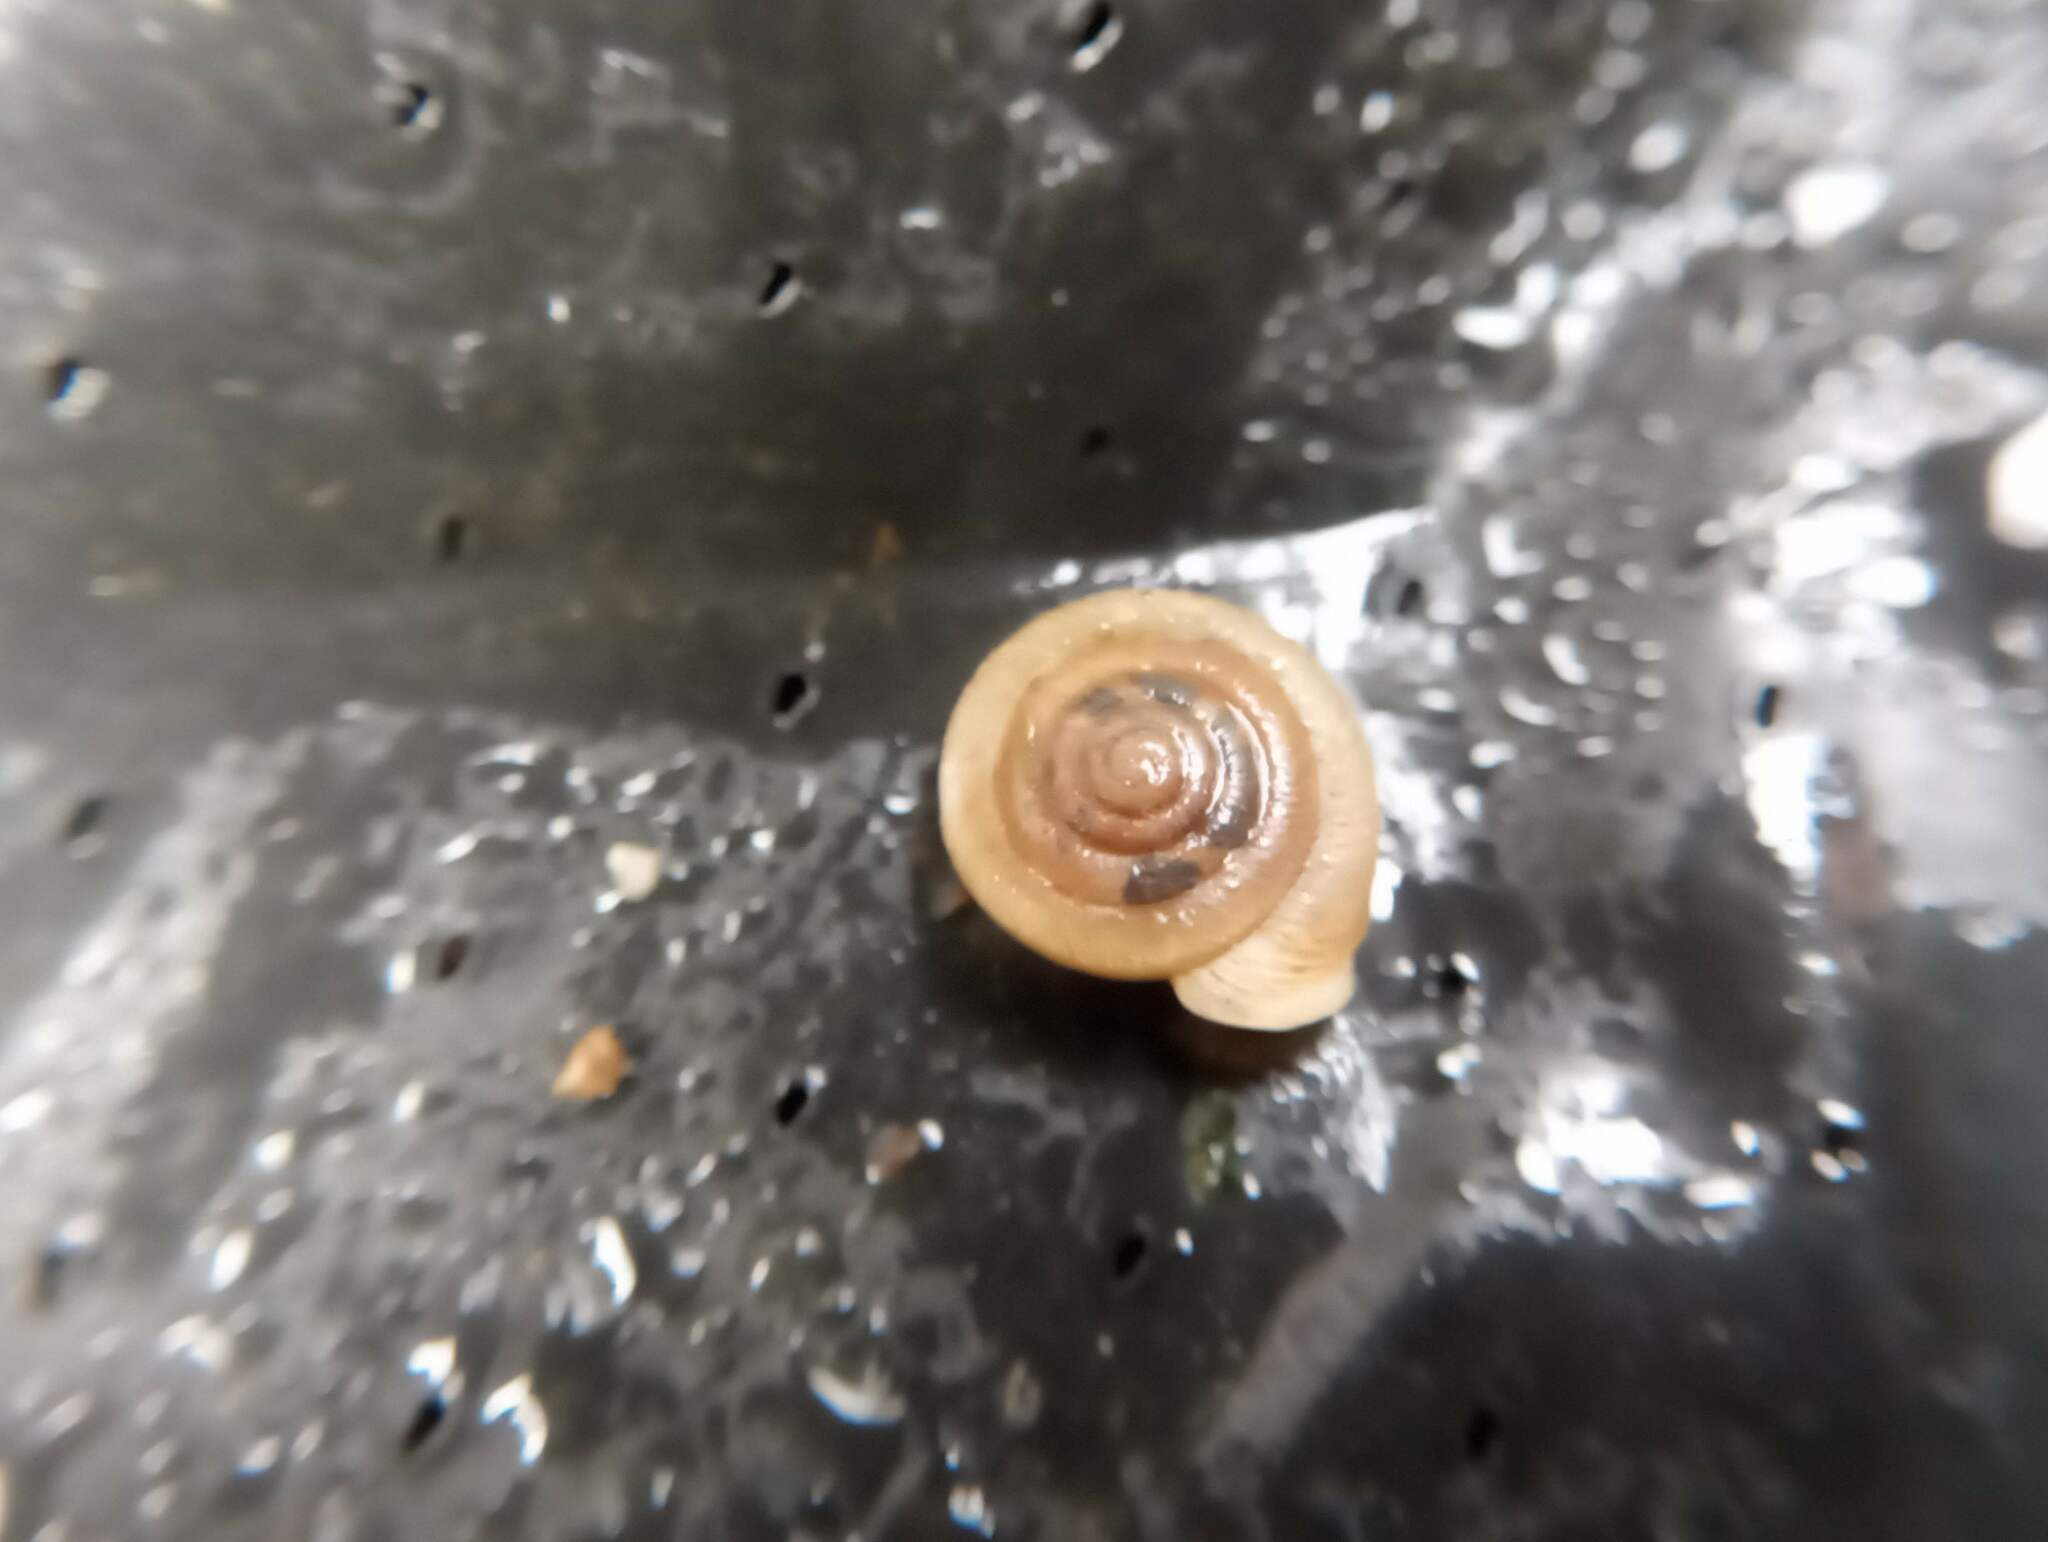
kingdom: Animalia
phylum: Mollusca
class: Gastropoda
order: Stylommatophora
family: Polygyridae
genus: Polygyra
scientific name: Polygyra cereolus
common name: Southern flatcone snail
